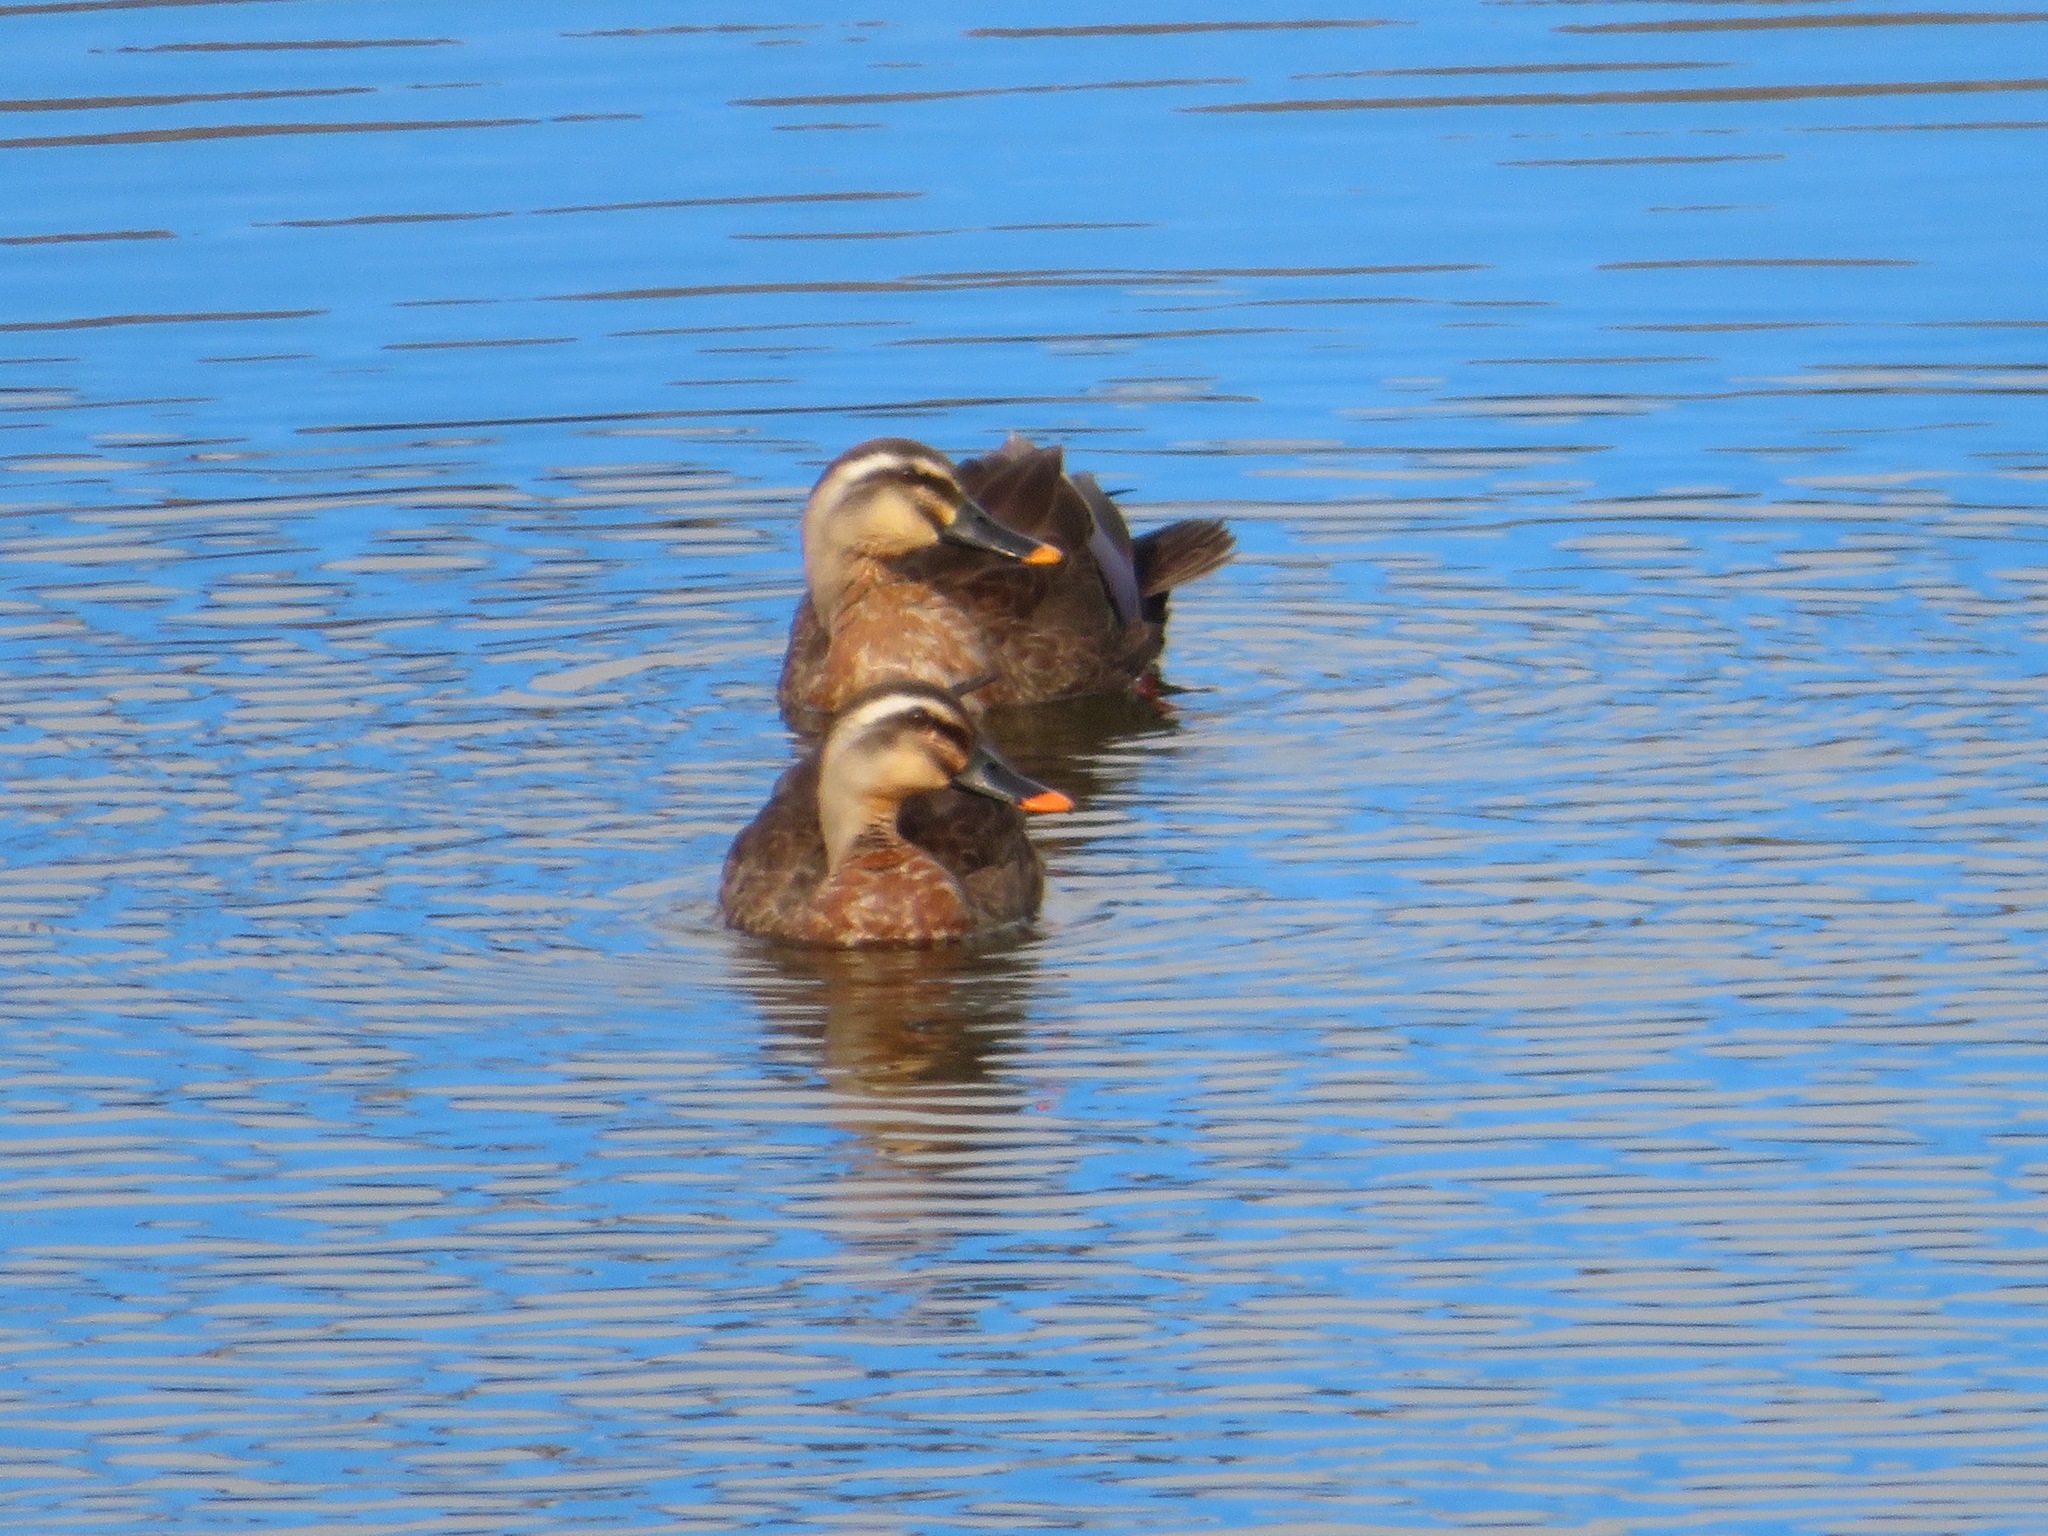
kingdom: Animalia
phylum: Chordata
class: Aves
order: Anseriformes
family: Anatidae
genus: Anas
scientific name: Anas zonorhyncha
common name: Eastern spot-billed duck
